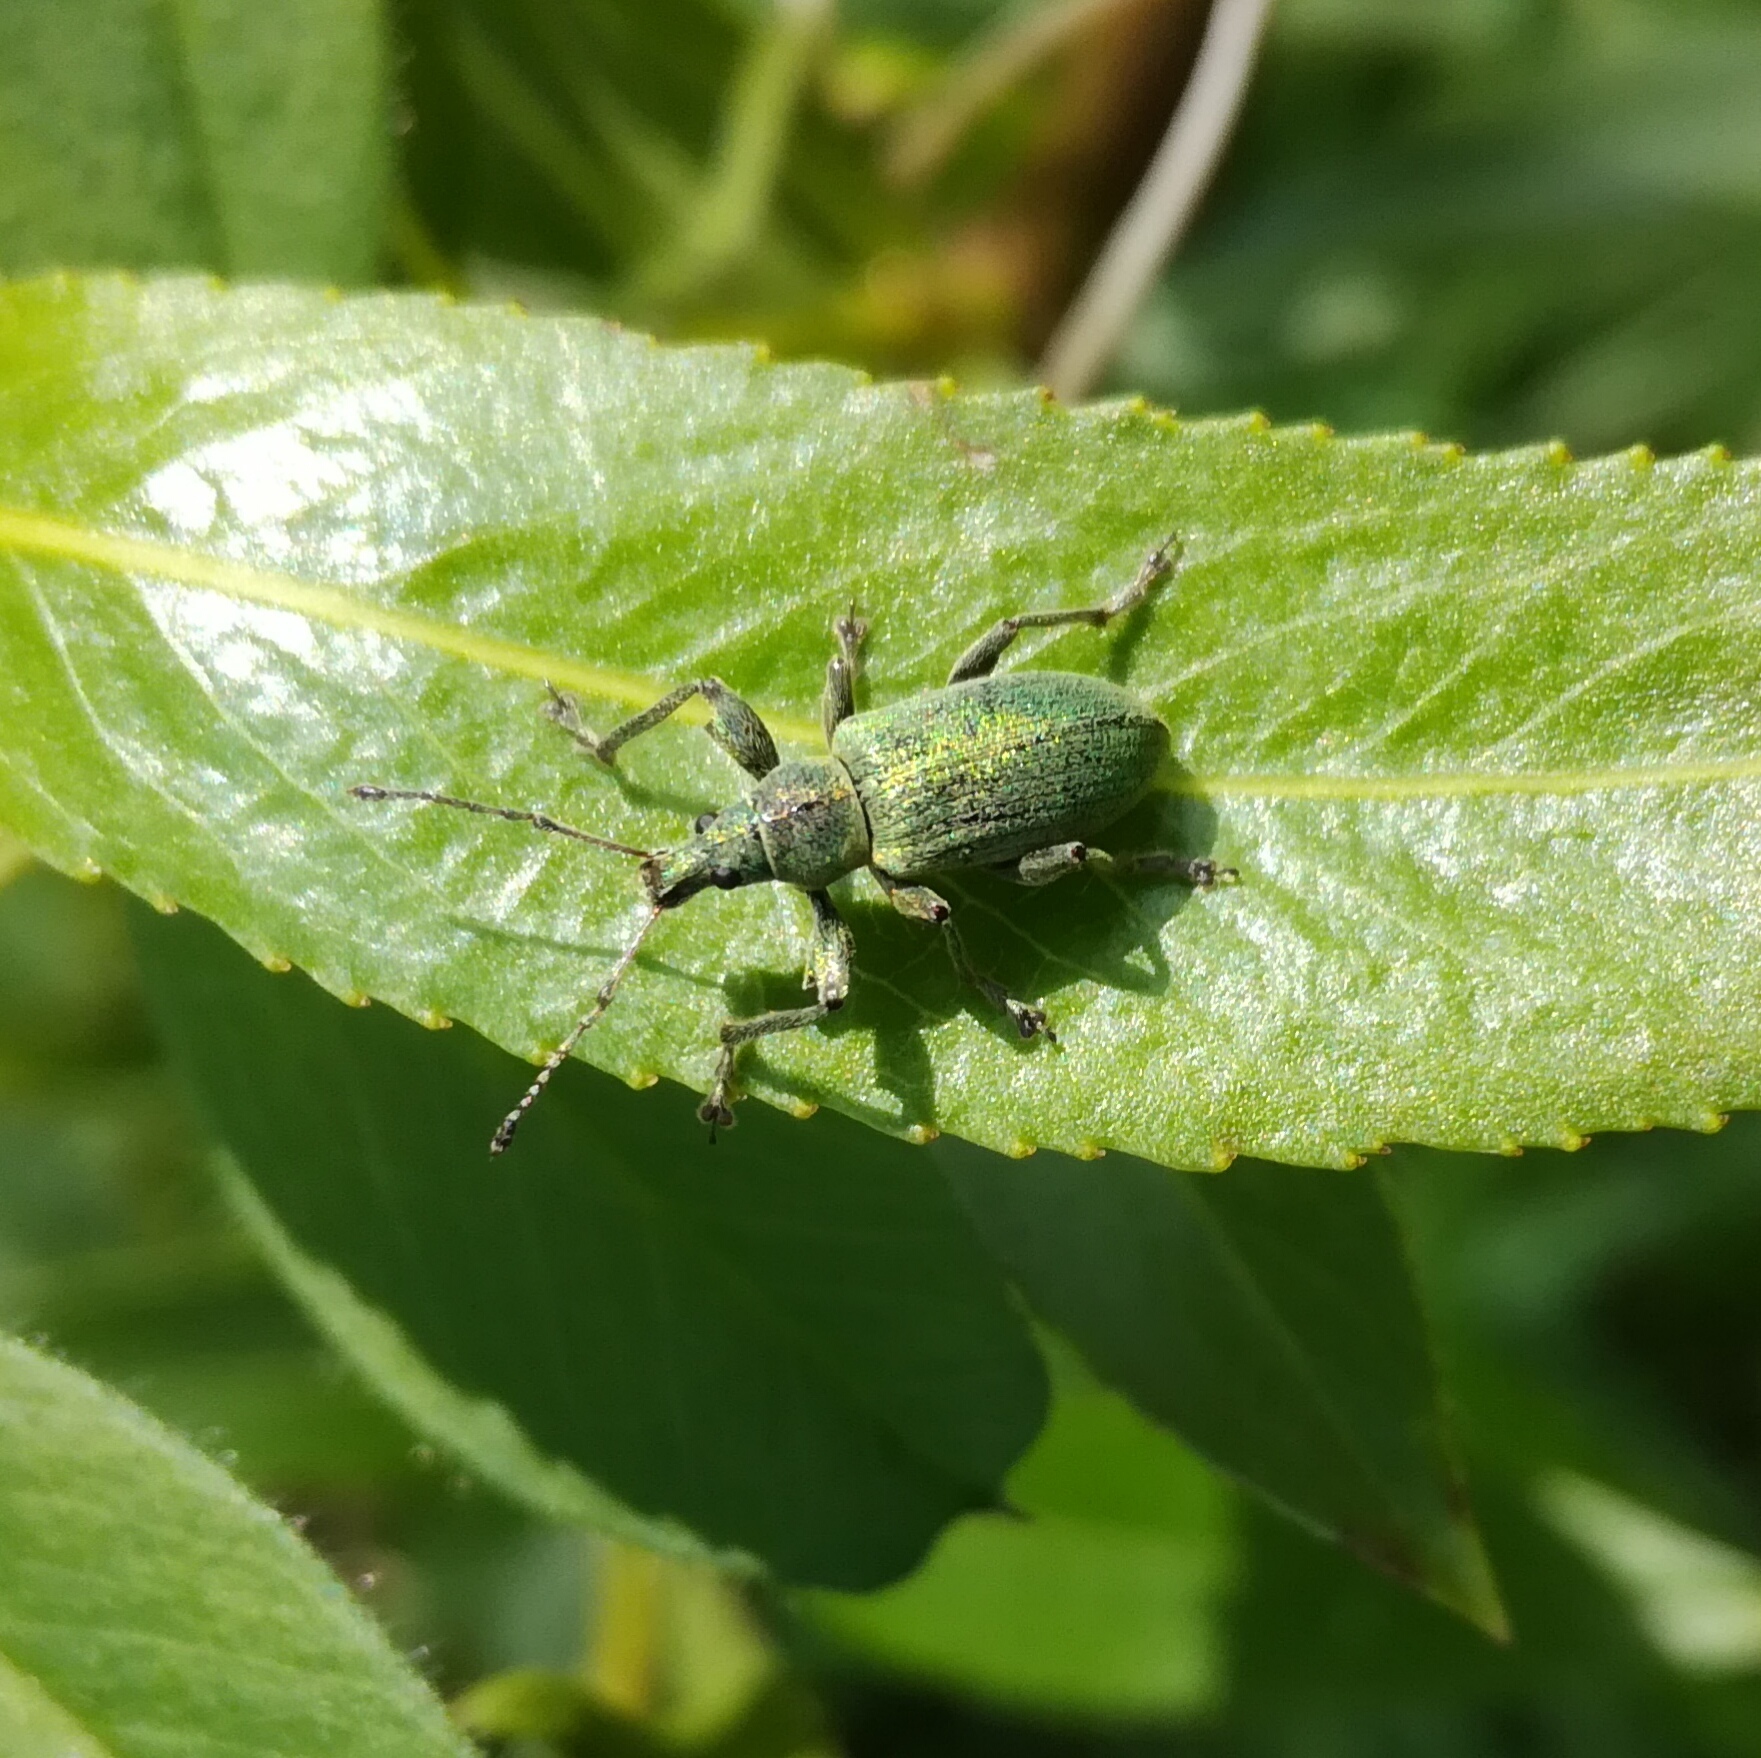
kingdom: Animalia
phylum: Arthropoda
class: Insecta
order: Coleoptera
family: Curculionidae
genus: Phyllobius
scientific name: Phyllobius pomaceus
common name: Green nettle weevil
